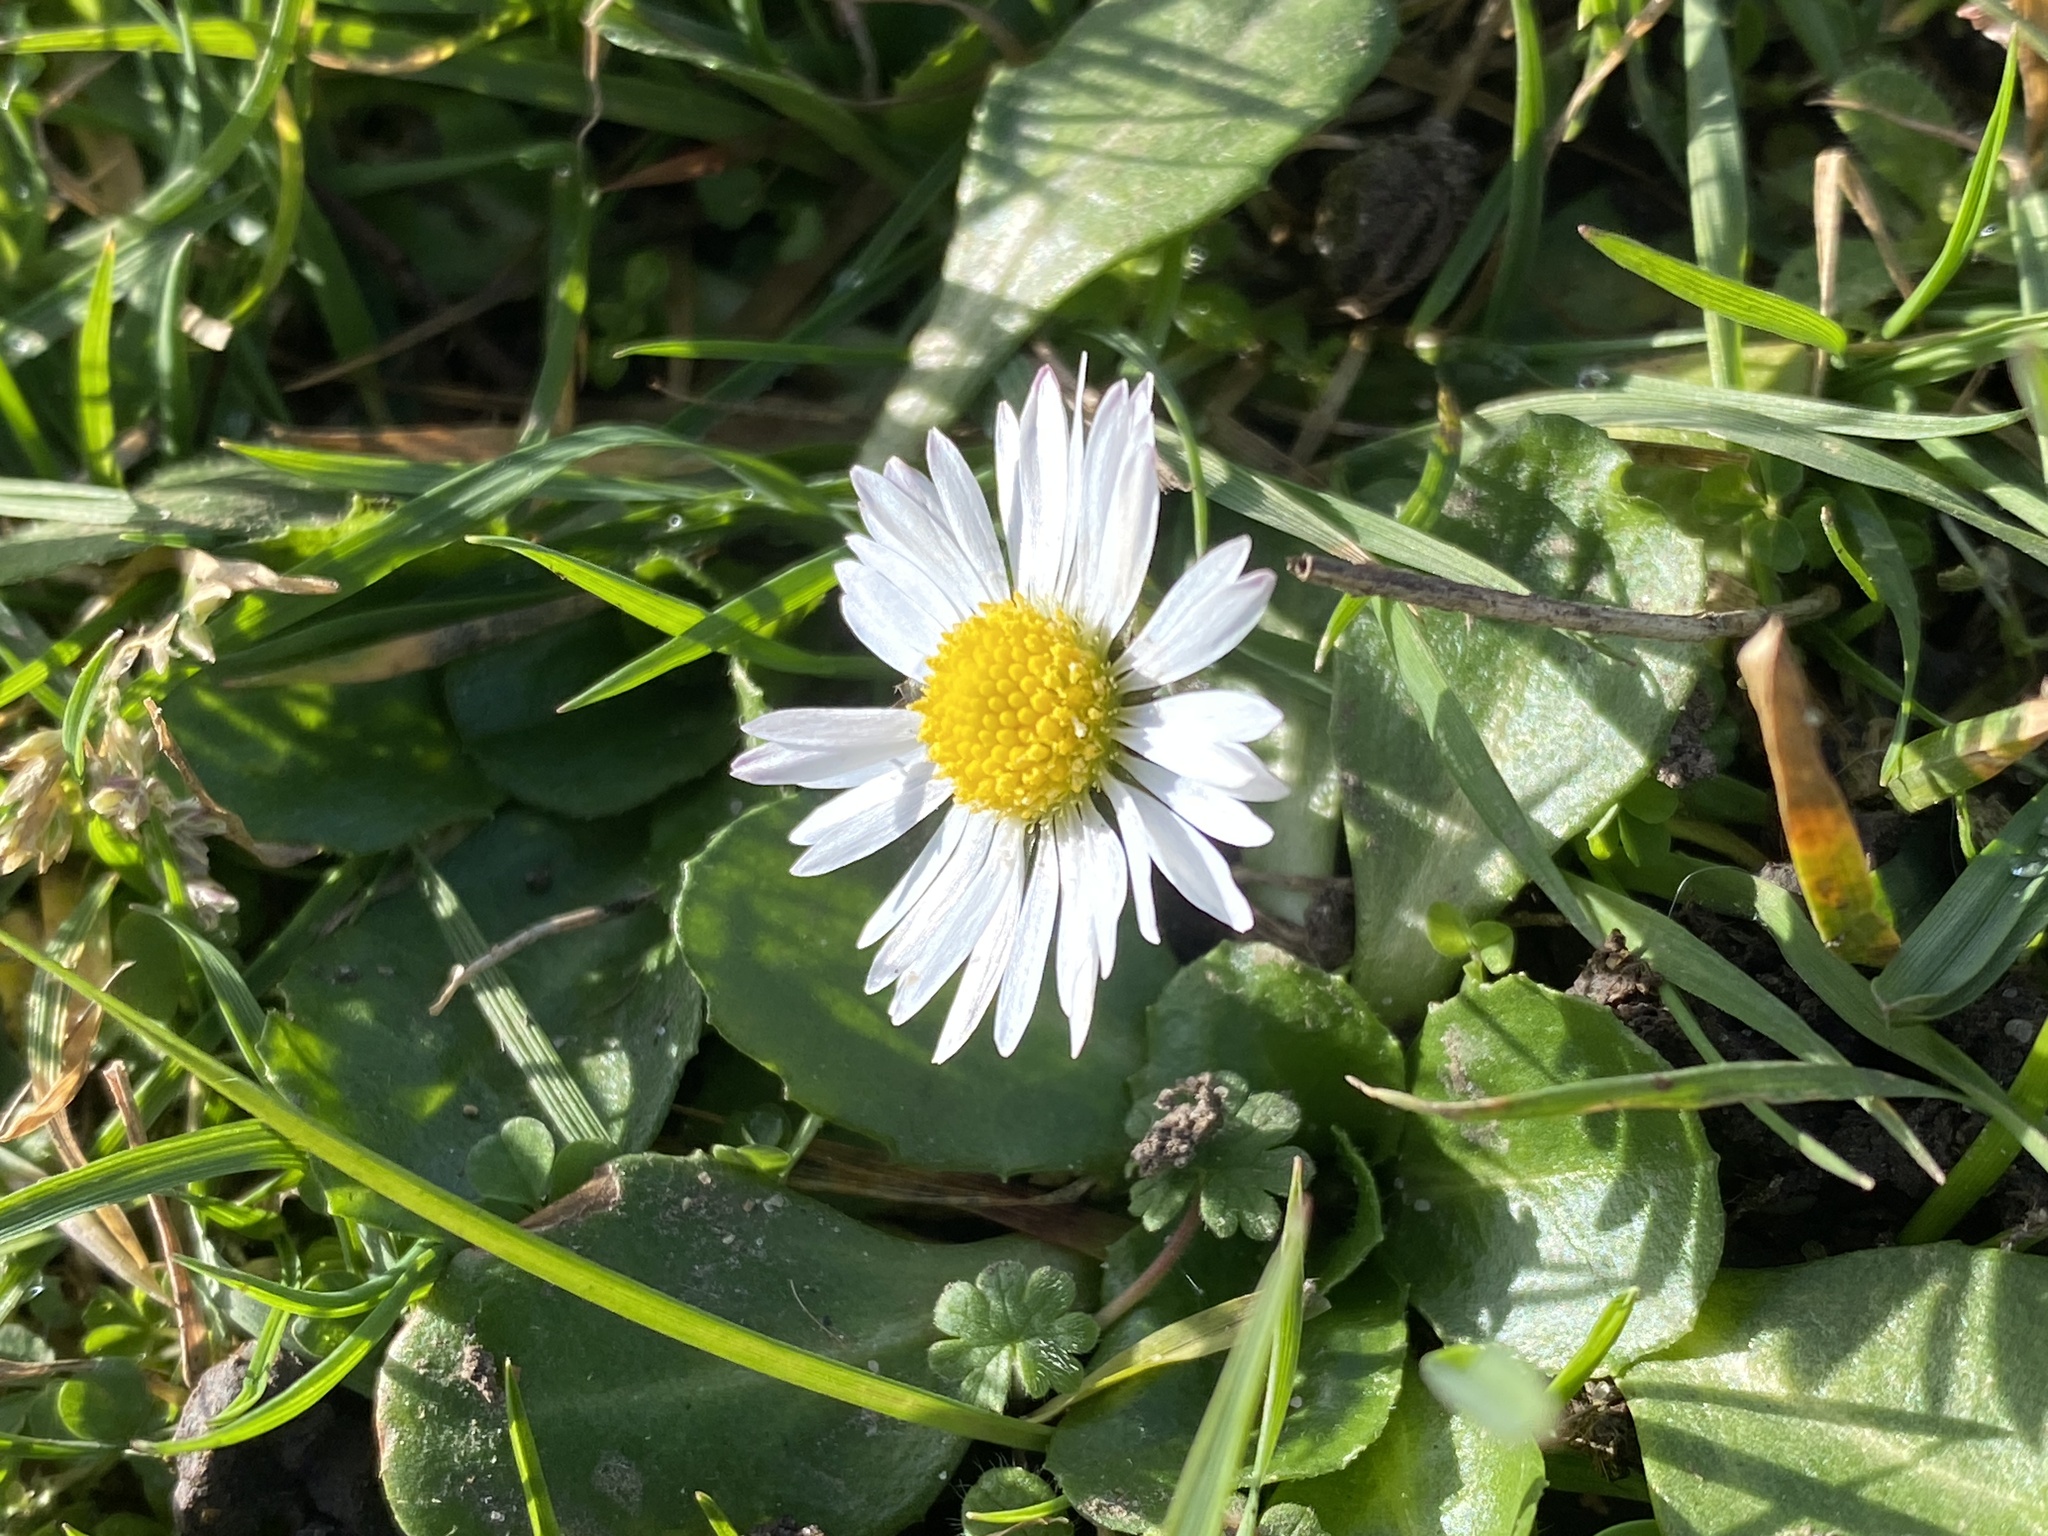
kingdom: Plantae
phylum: Tracheophyta
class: Magnoliopsida
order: Asterales
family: Asteraceae
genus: Bellis
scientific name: Bellis perennis
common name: Lawndaisy
